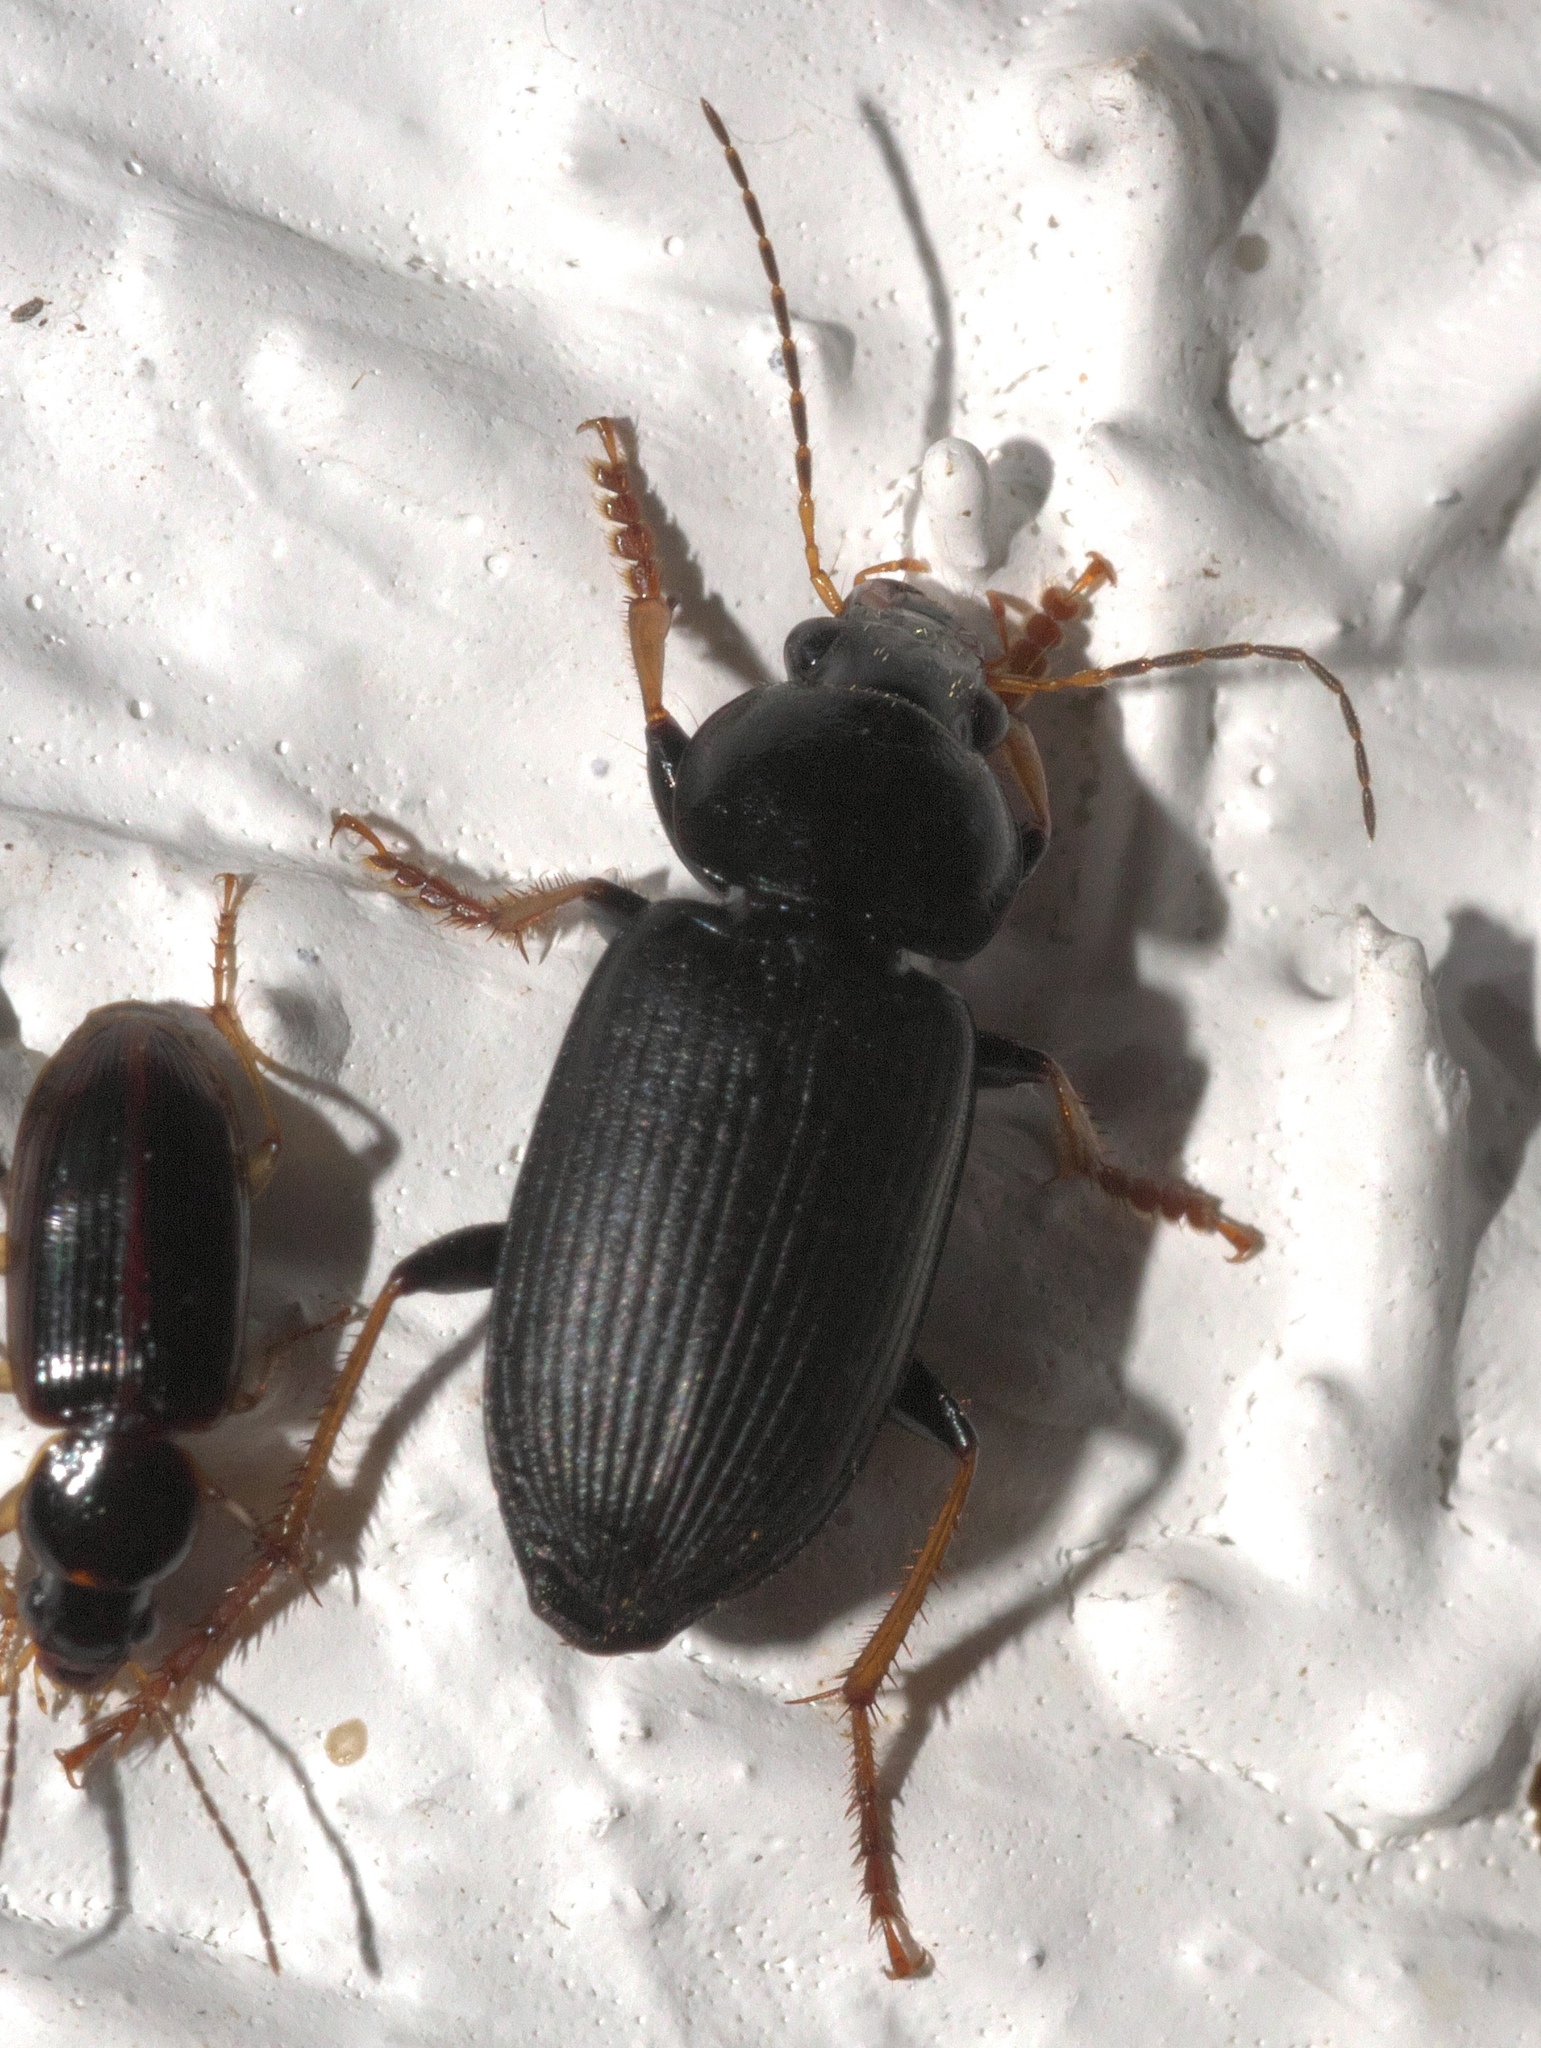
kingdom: Animalia
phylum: Arthropoda
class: Insecta
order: Coleoptera
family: Carabidae
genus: Amphasia
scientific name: Amphasia sericea
